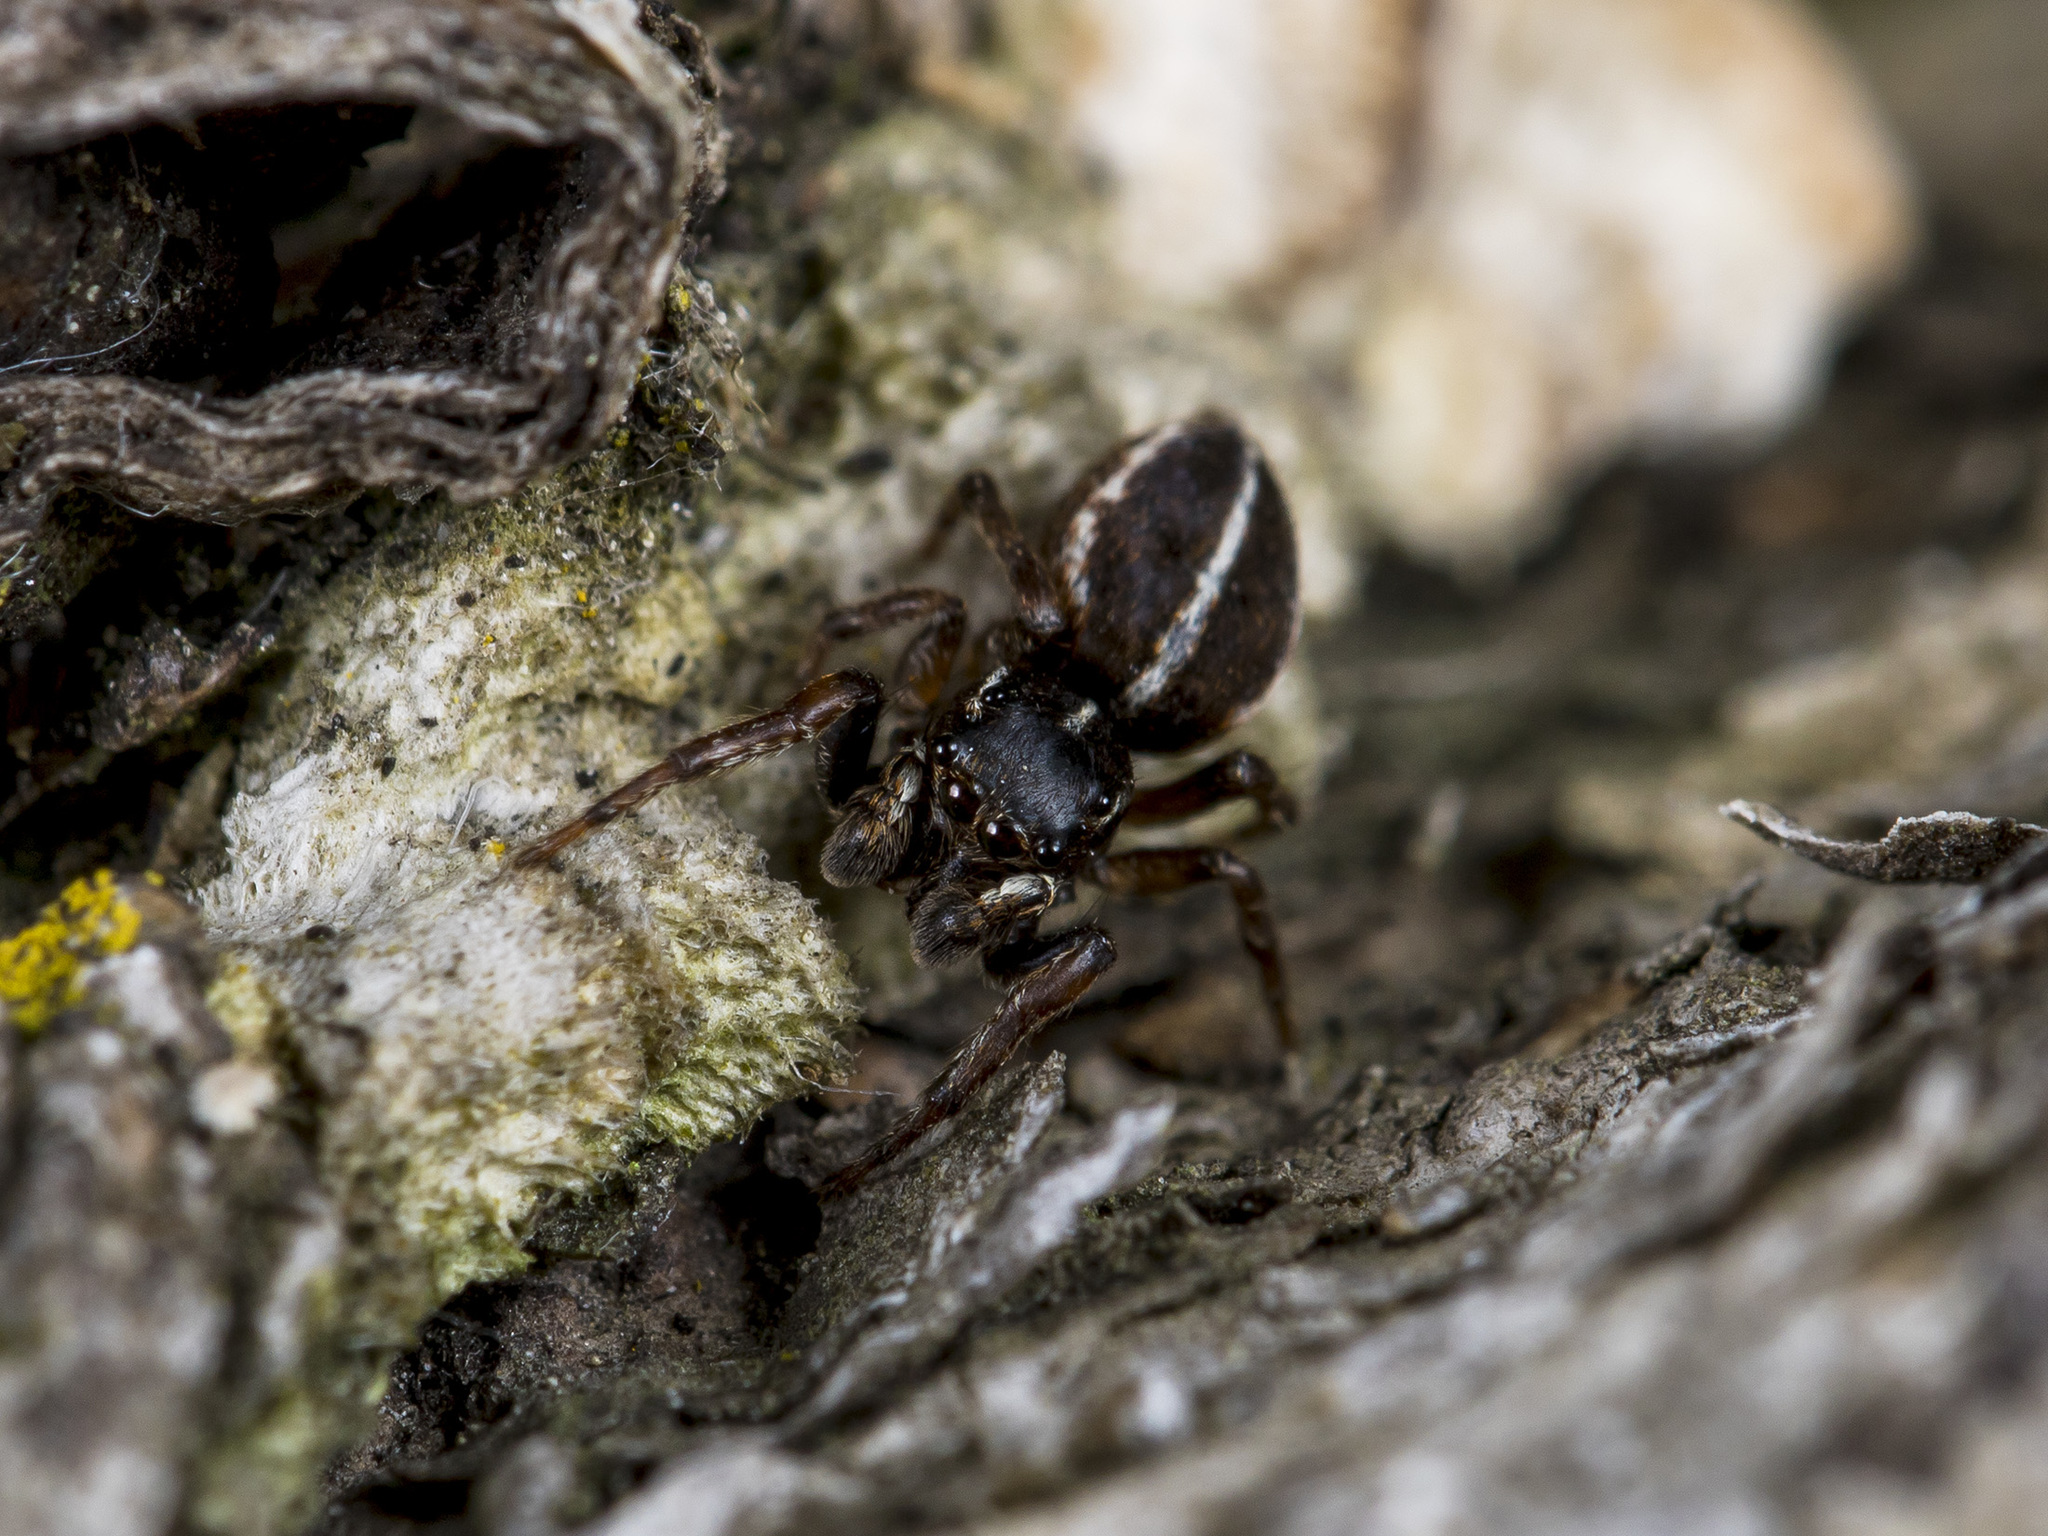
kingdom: Animalia
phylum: Arthropoda
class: Arachnida
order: Araneae
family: Salticidae
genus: Attulus
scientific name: Attulus monstrabilis
